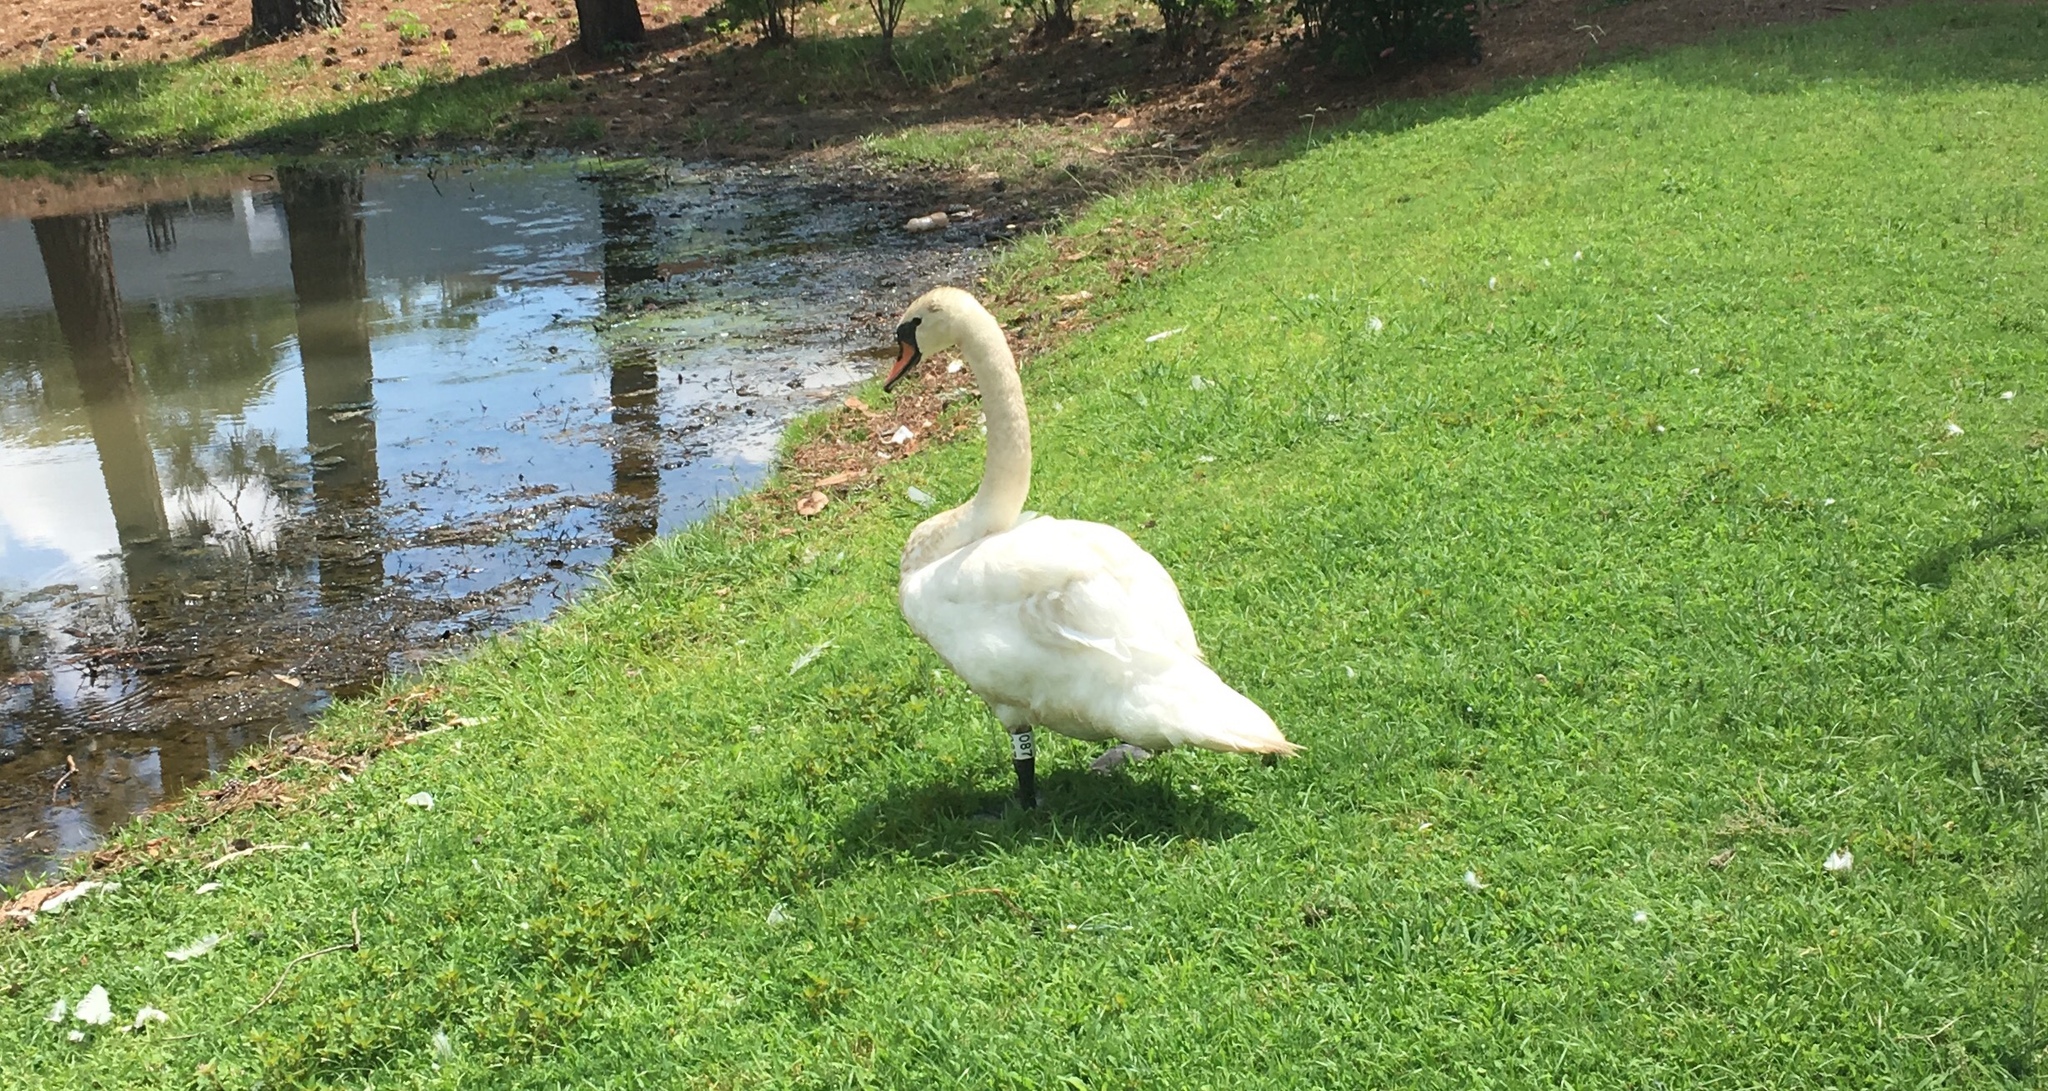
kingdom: Animalia
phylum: Chordata
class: Aves
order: Anseriformes
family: Anatidae
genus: Cygnus
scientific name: Cygnus olor
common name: Mute swan
